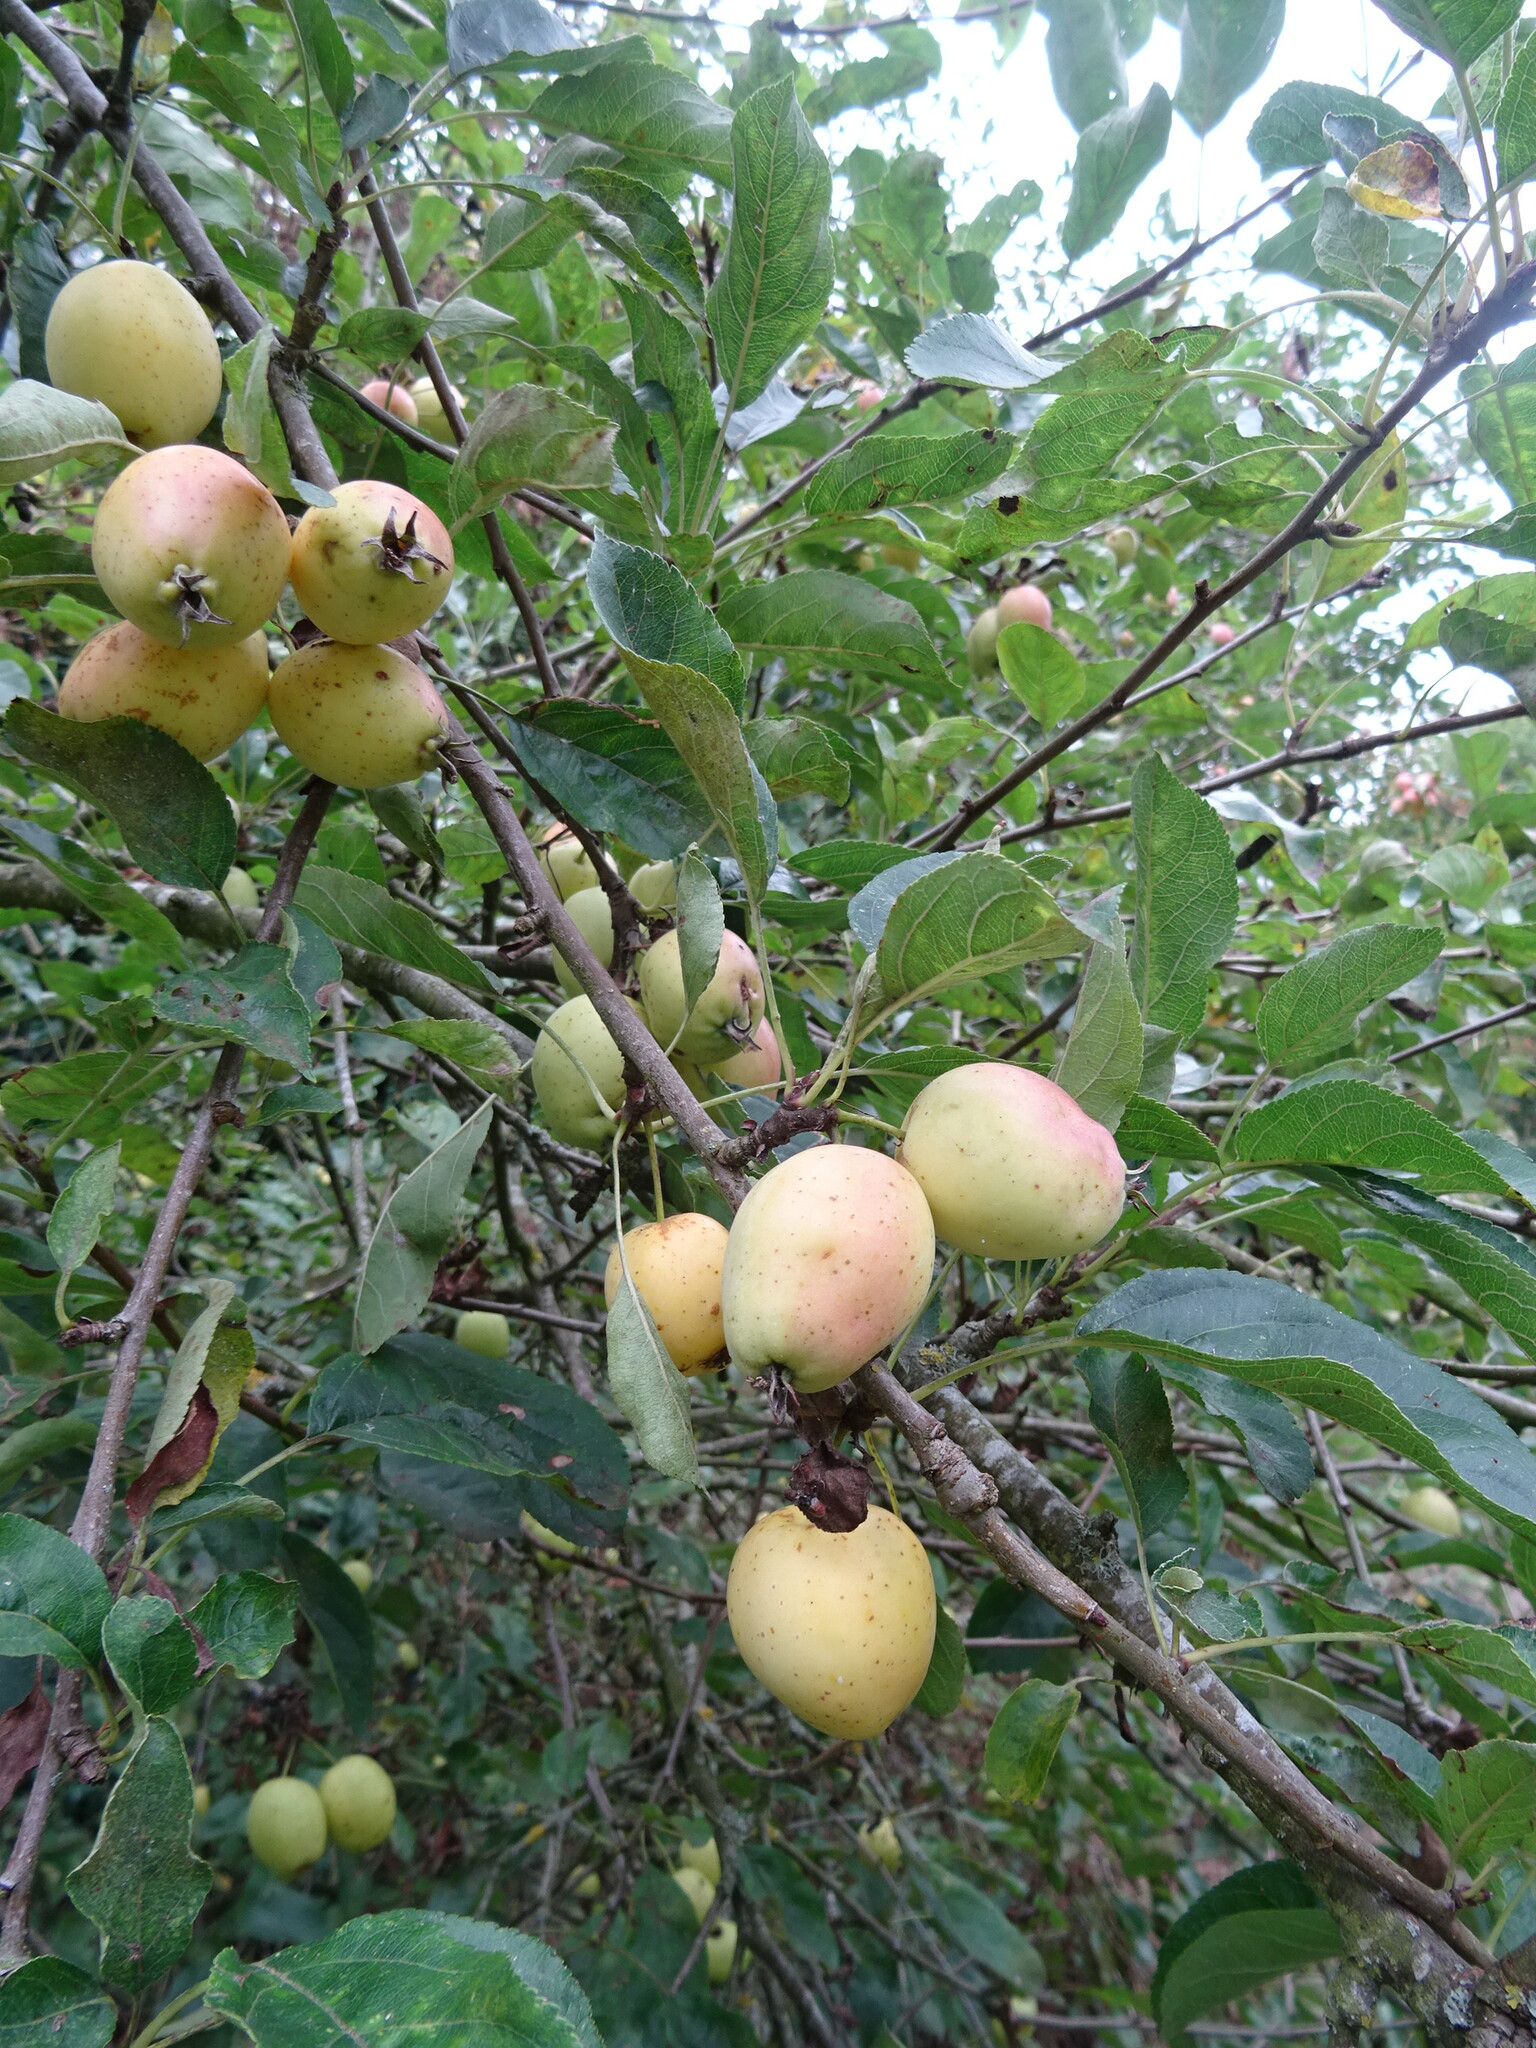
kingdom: Plantae
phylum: Tracheophyta
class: Magnoliopsida
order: Rosales
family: Rosaceae
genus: Malus
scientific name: Malus domestica
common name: Apple
